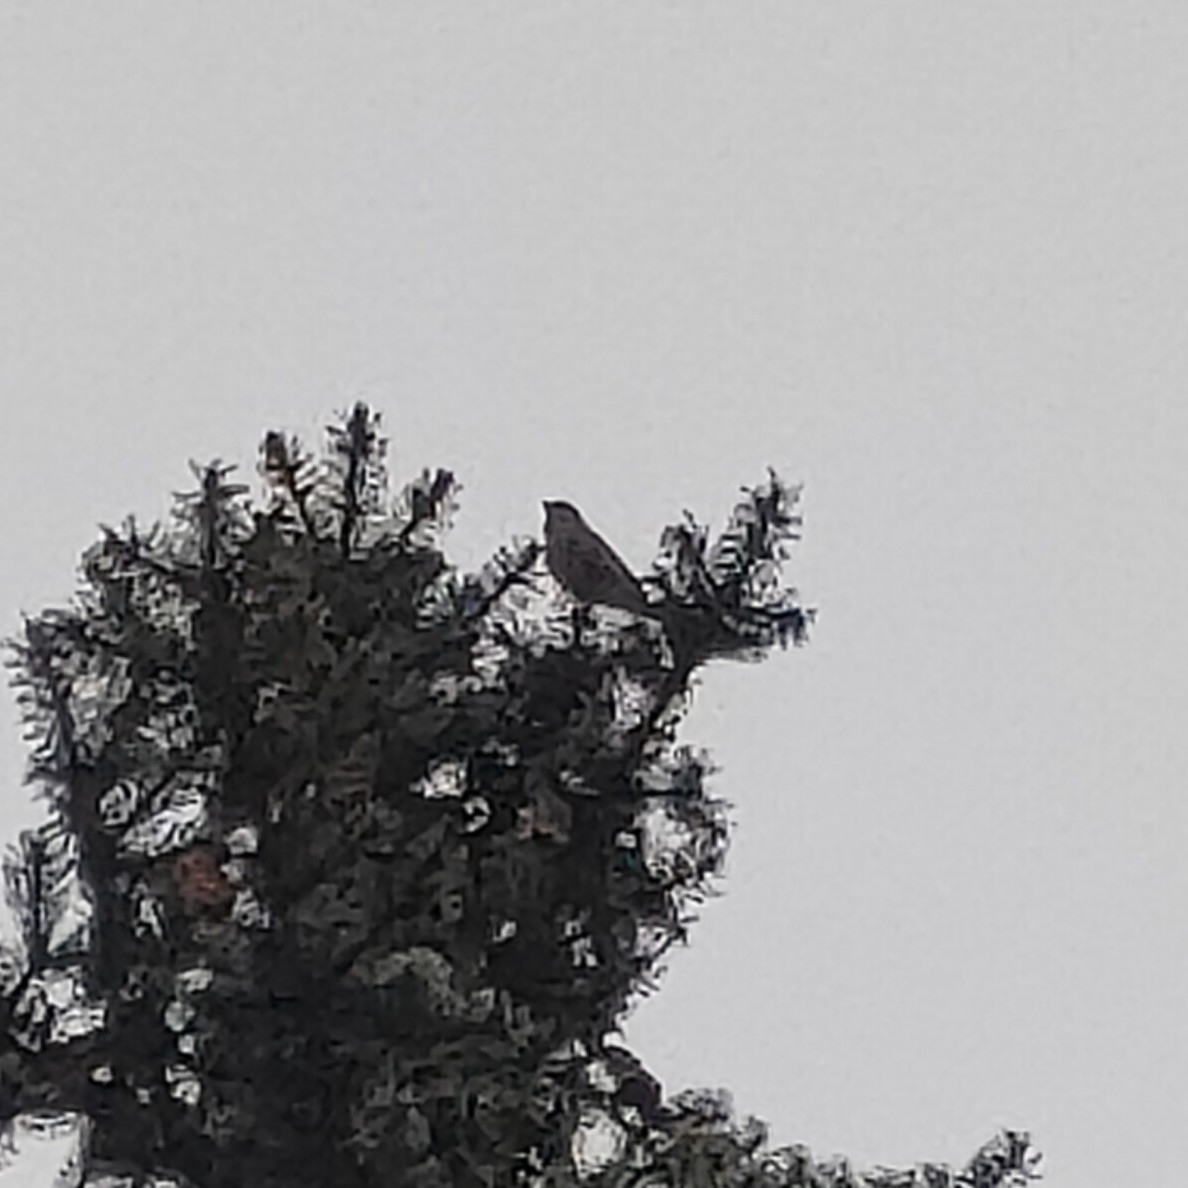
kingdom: Plantae
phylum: Tracheophyta
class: Liliopsida
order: Poales
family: Poaceae
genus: Chloris
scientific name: Chloris chloris
